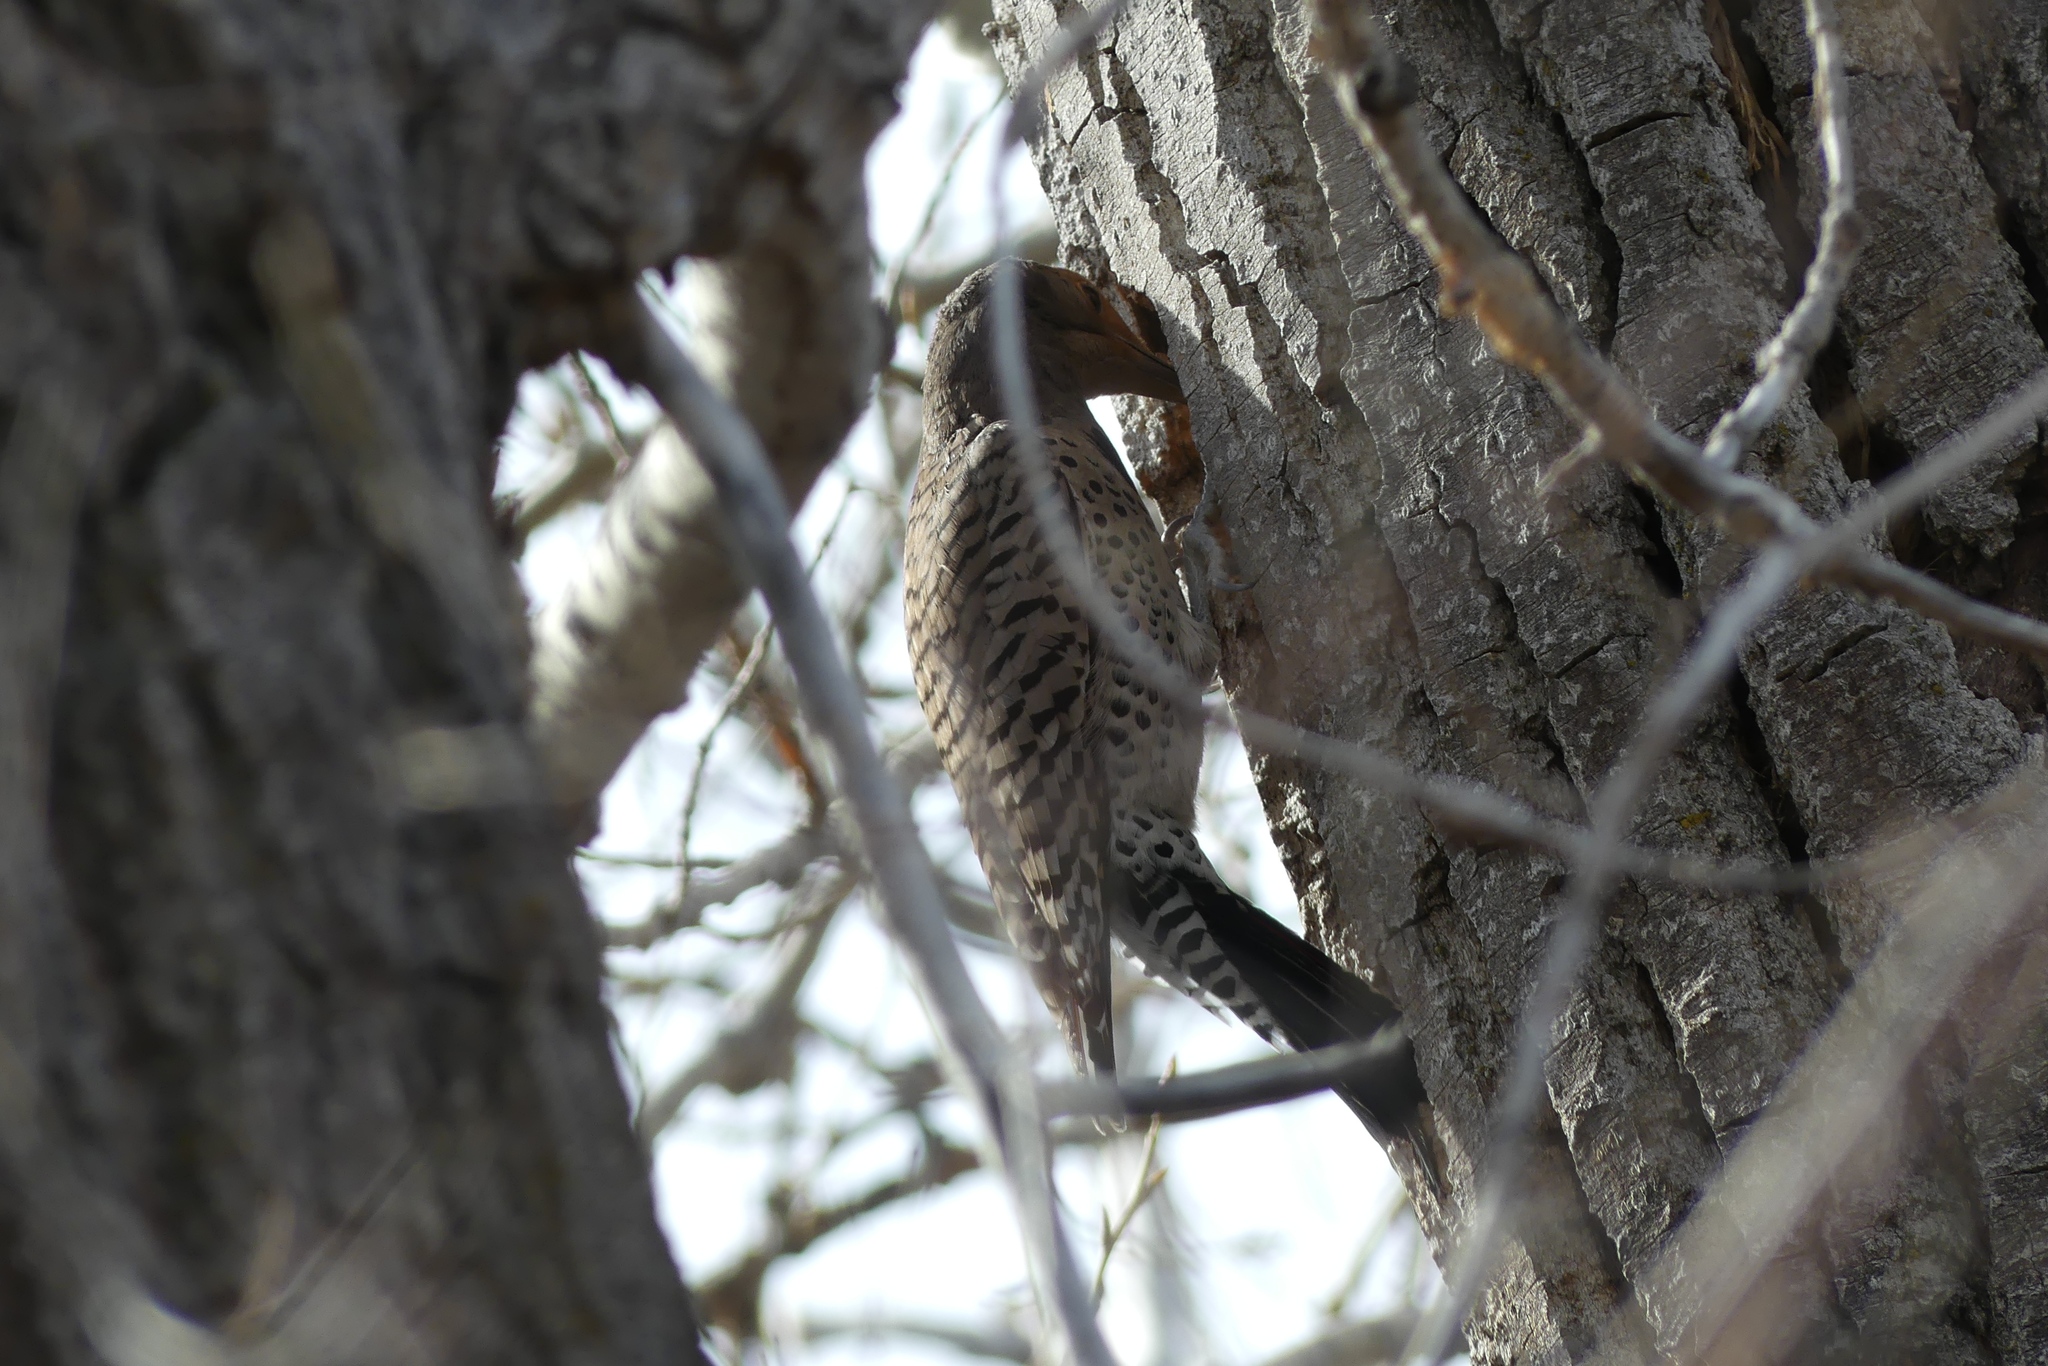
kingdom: Animalia
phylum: Chordata
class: Aves
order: Piciformes
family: Picidae
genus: Colaptes
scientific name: Colaptes auratus
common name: Northern flicker
